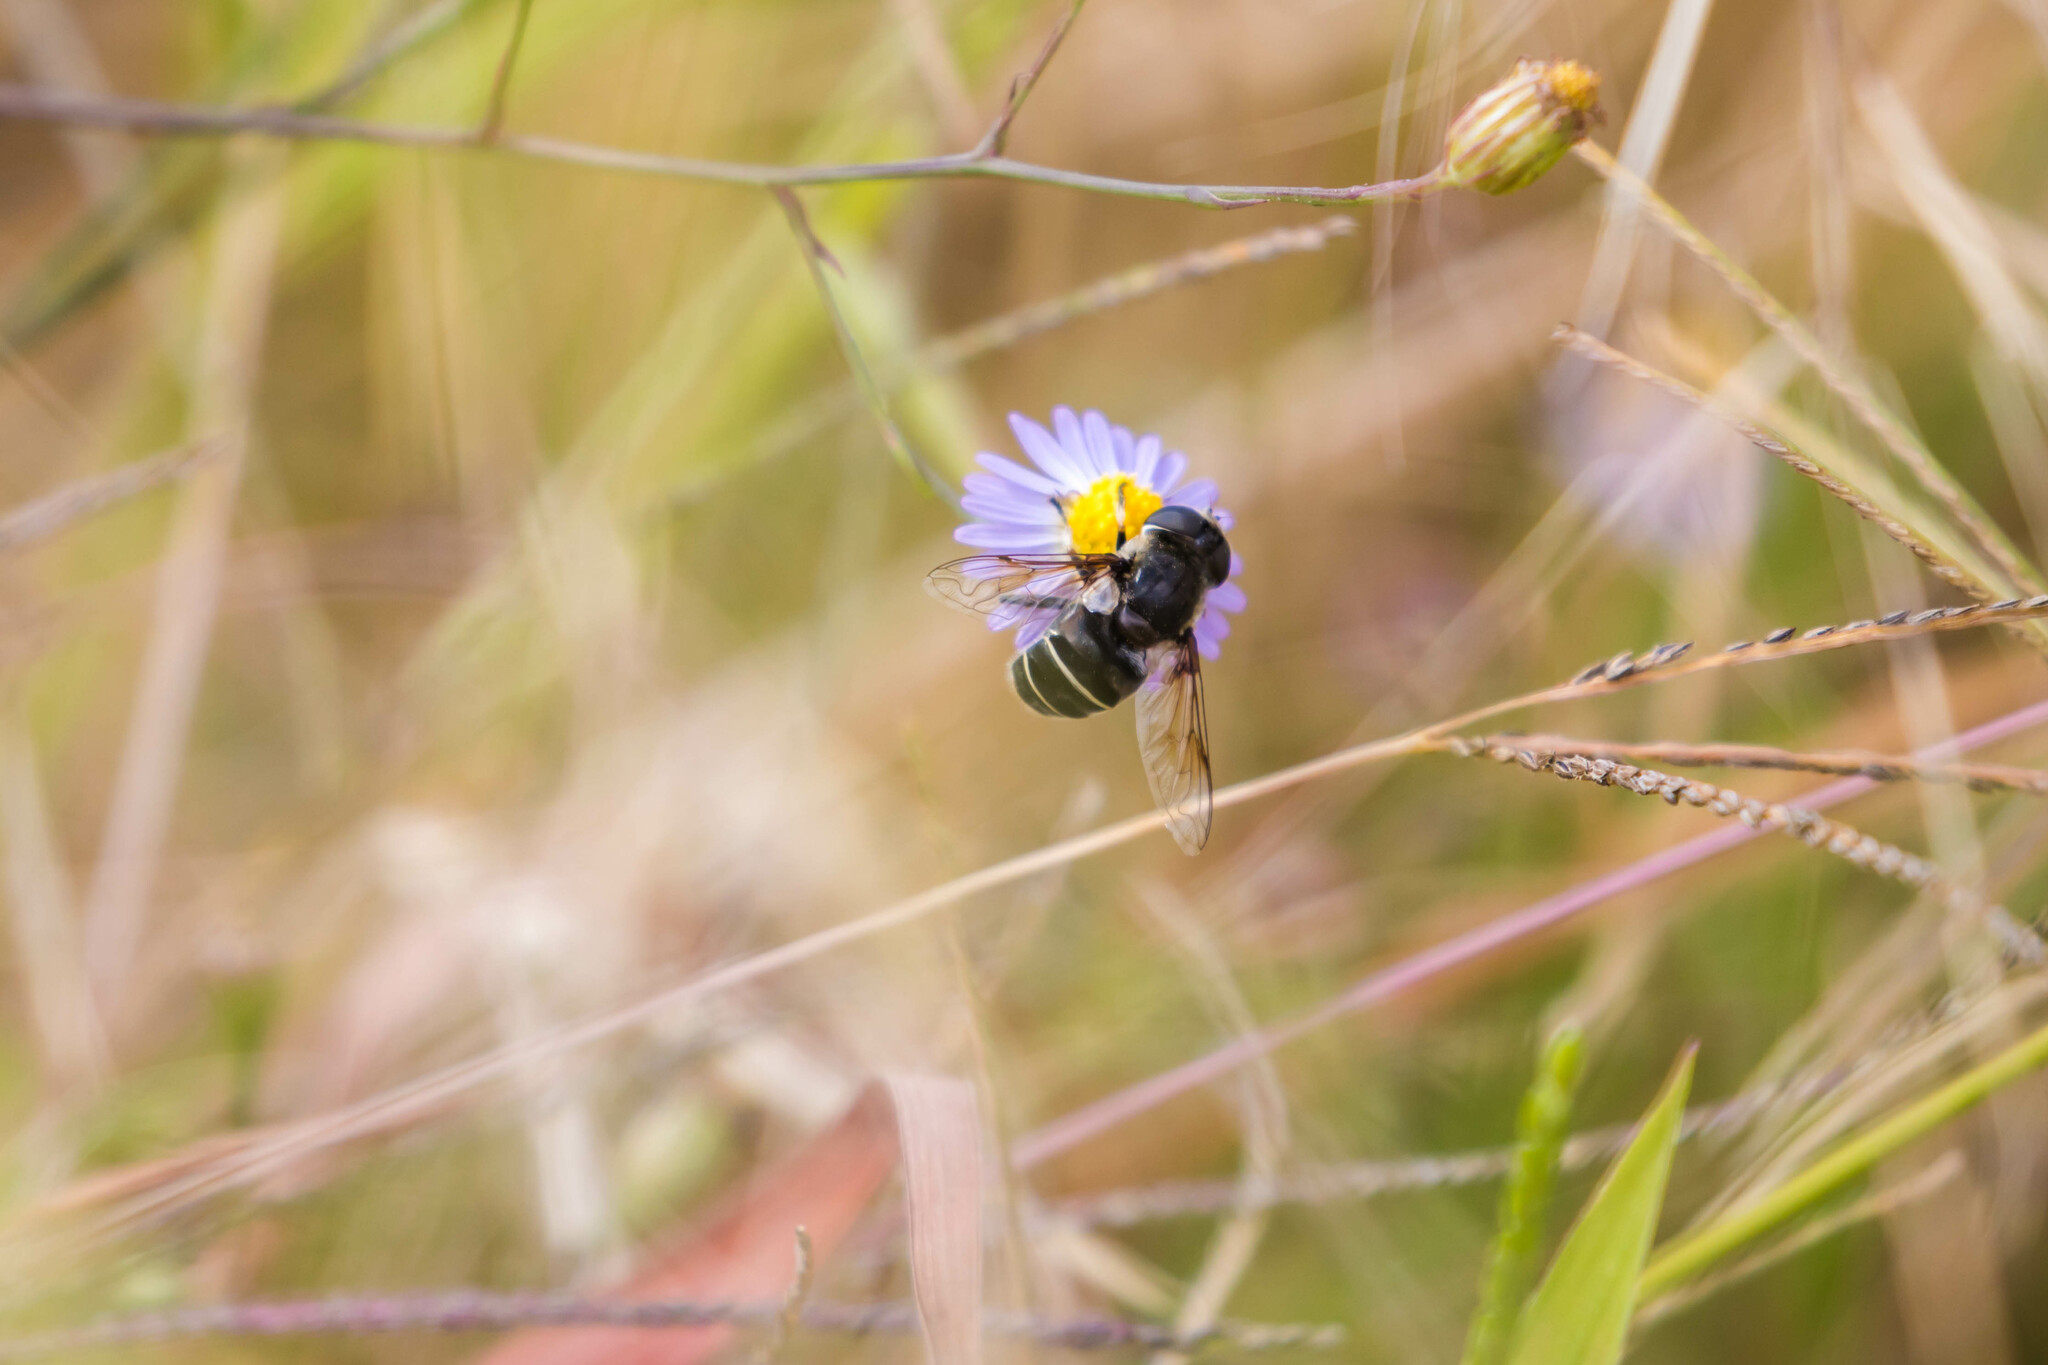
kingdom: Animalia
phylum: Arthropoda
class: Insecta
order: Diptera
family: Syrphidae
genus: Eristalis
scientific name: Eristalis dimidiata
